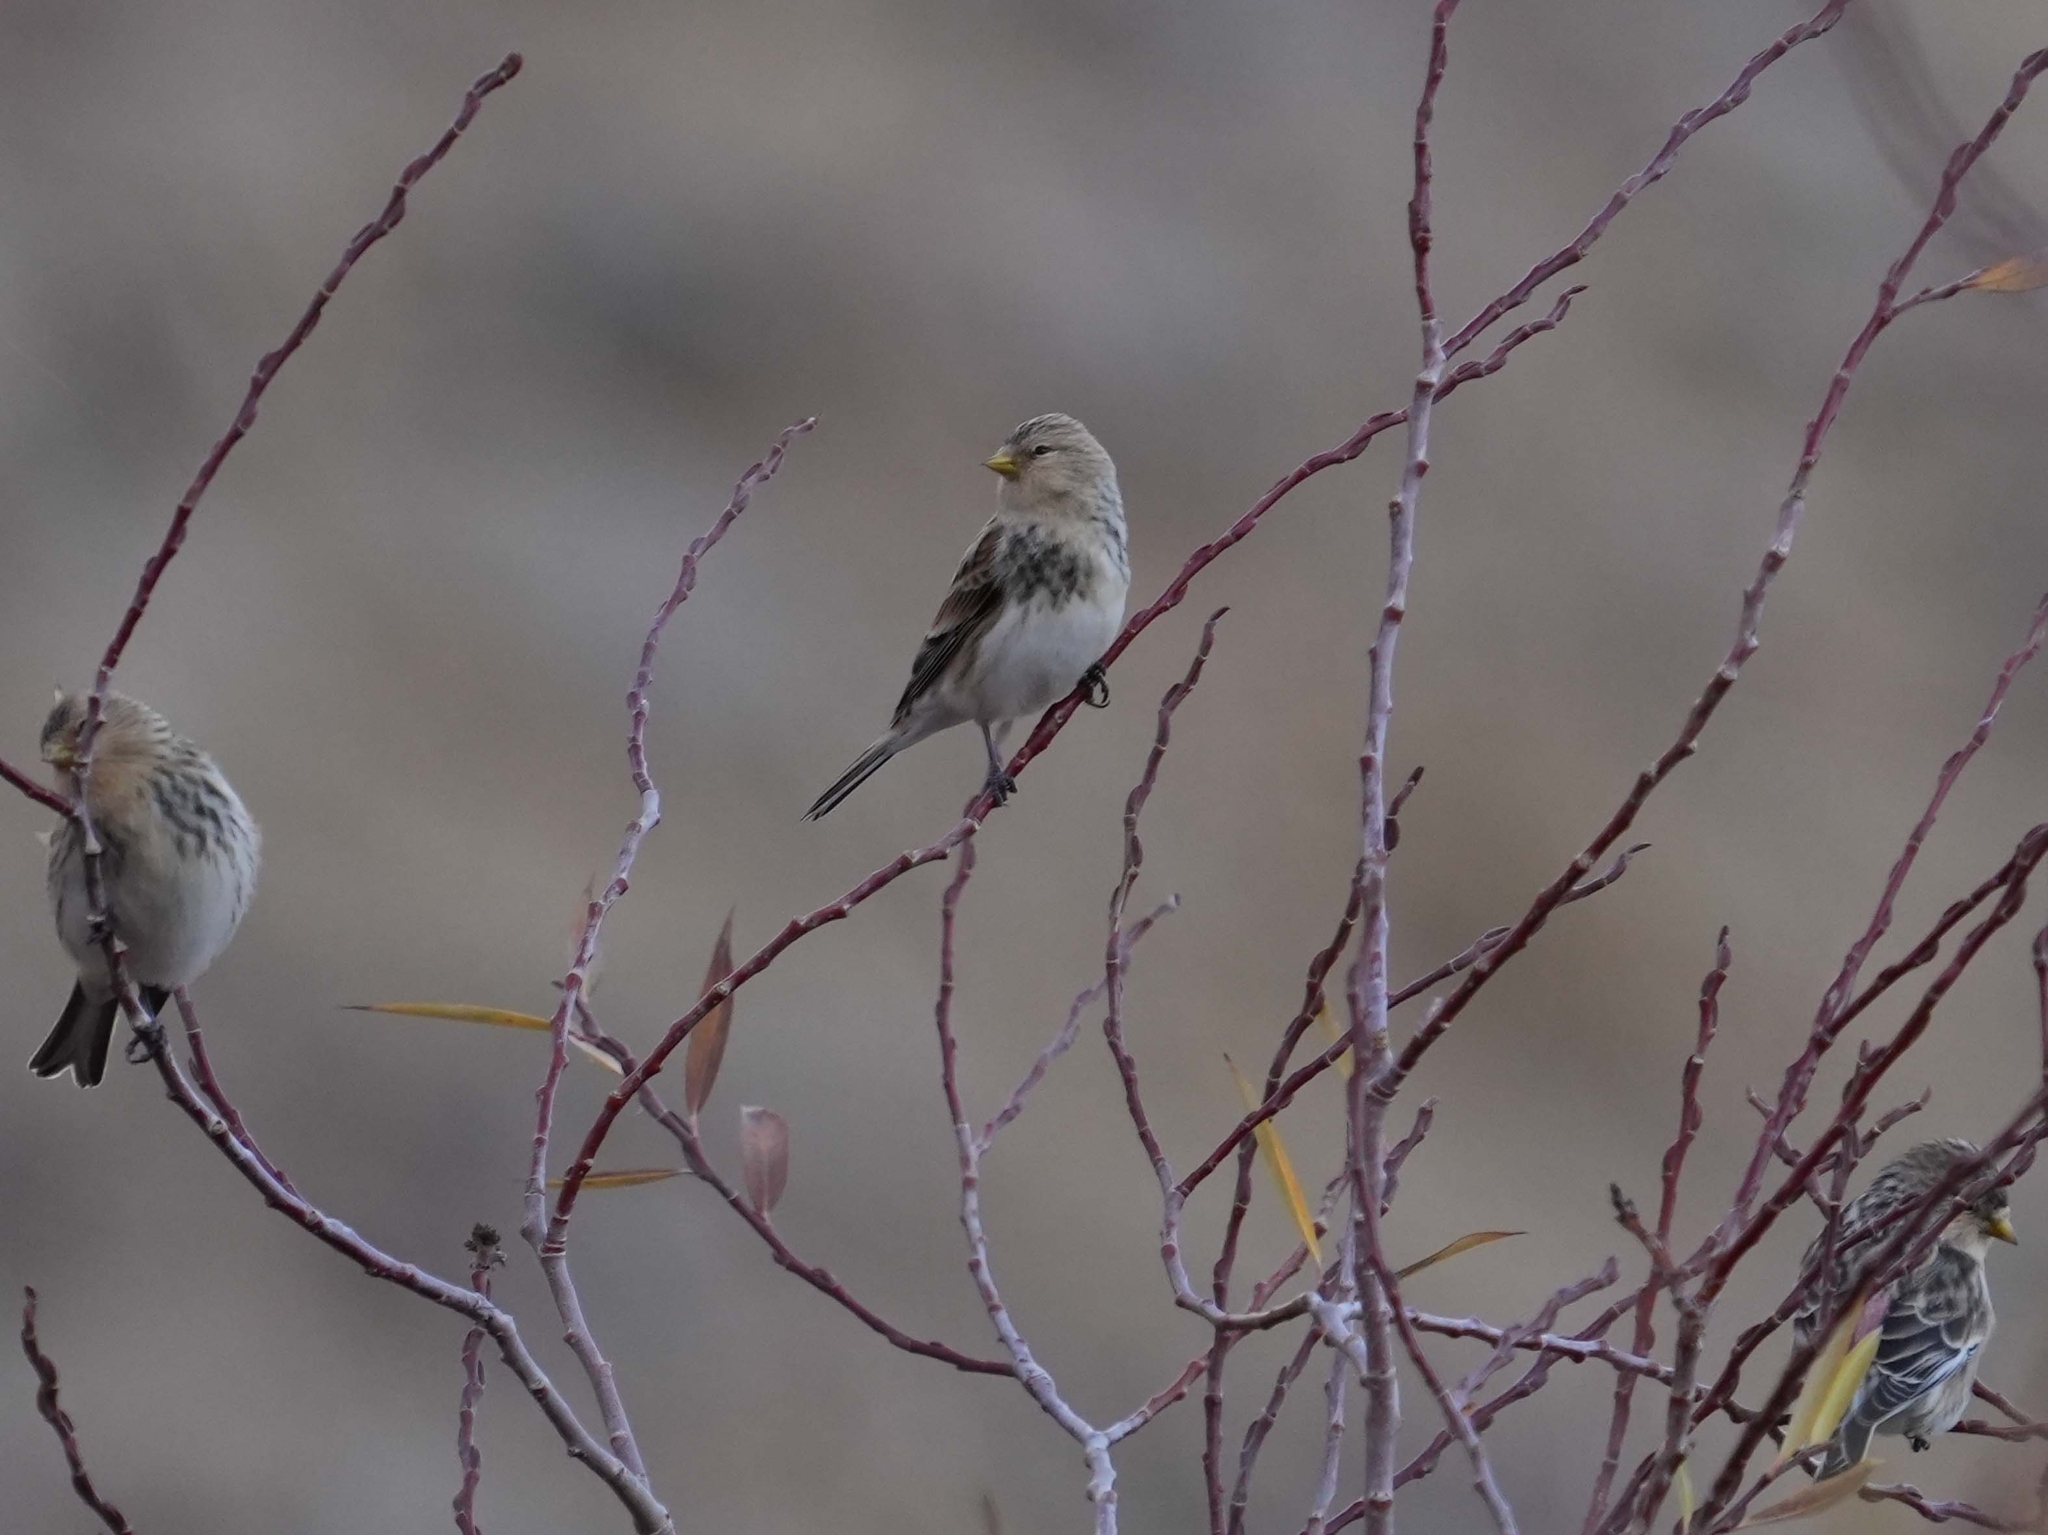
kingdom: Animalia
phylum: Chordata
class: Aves
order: Passeriformes
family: Fringillidae
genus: Linaria
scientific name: Linaria flavirostris
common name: Twite
